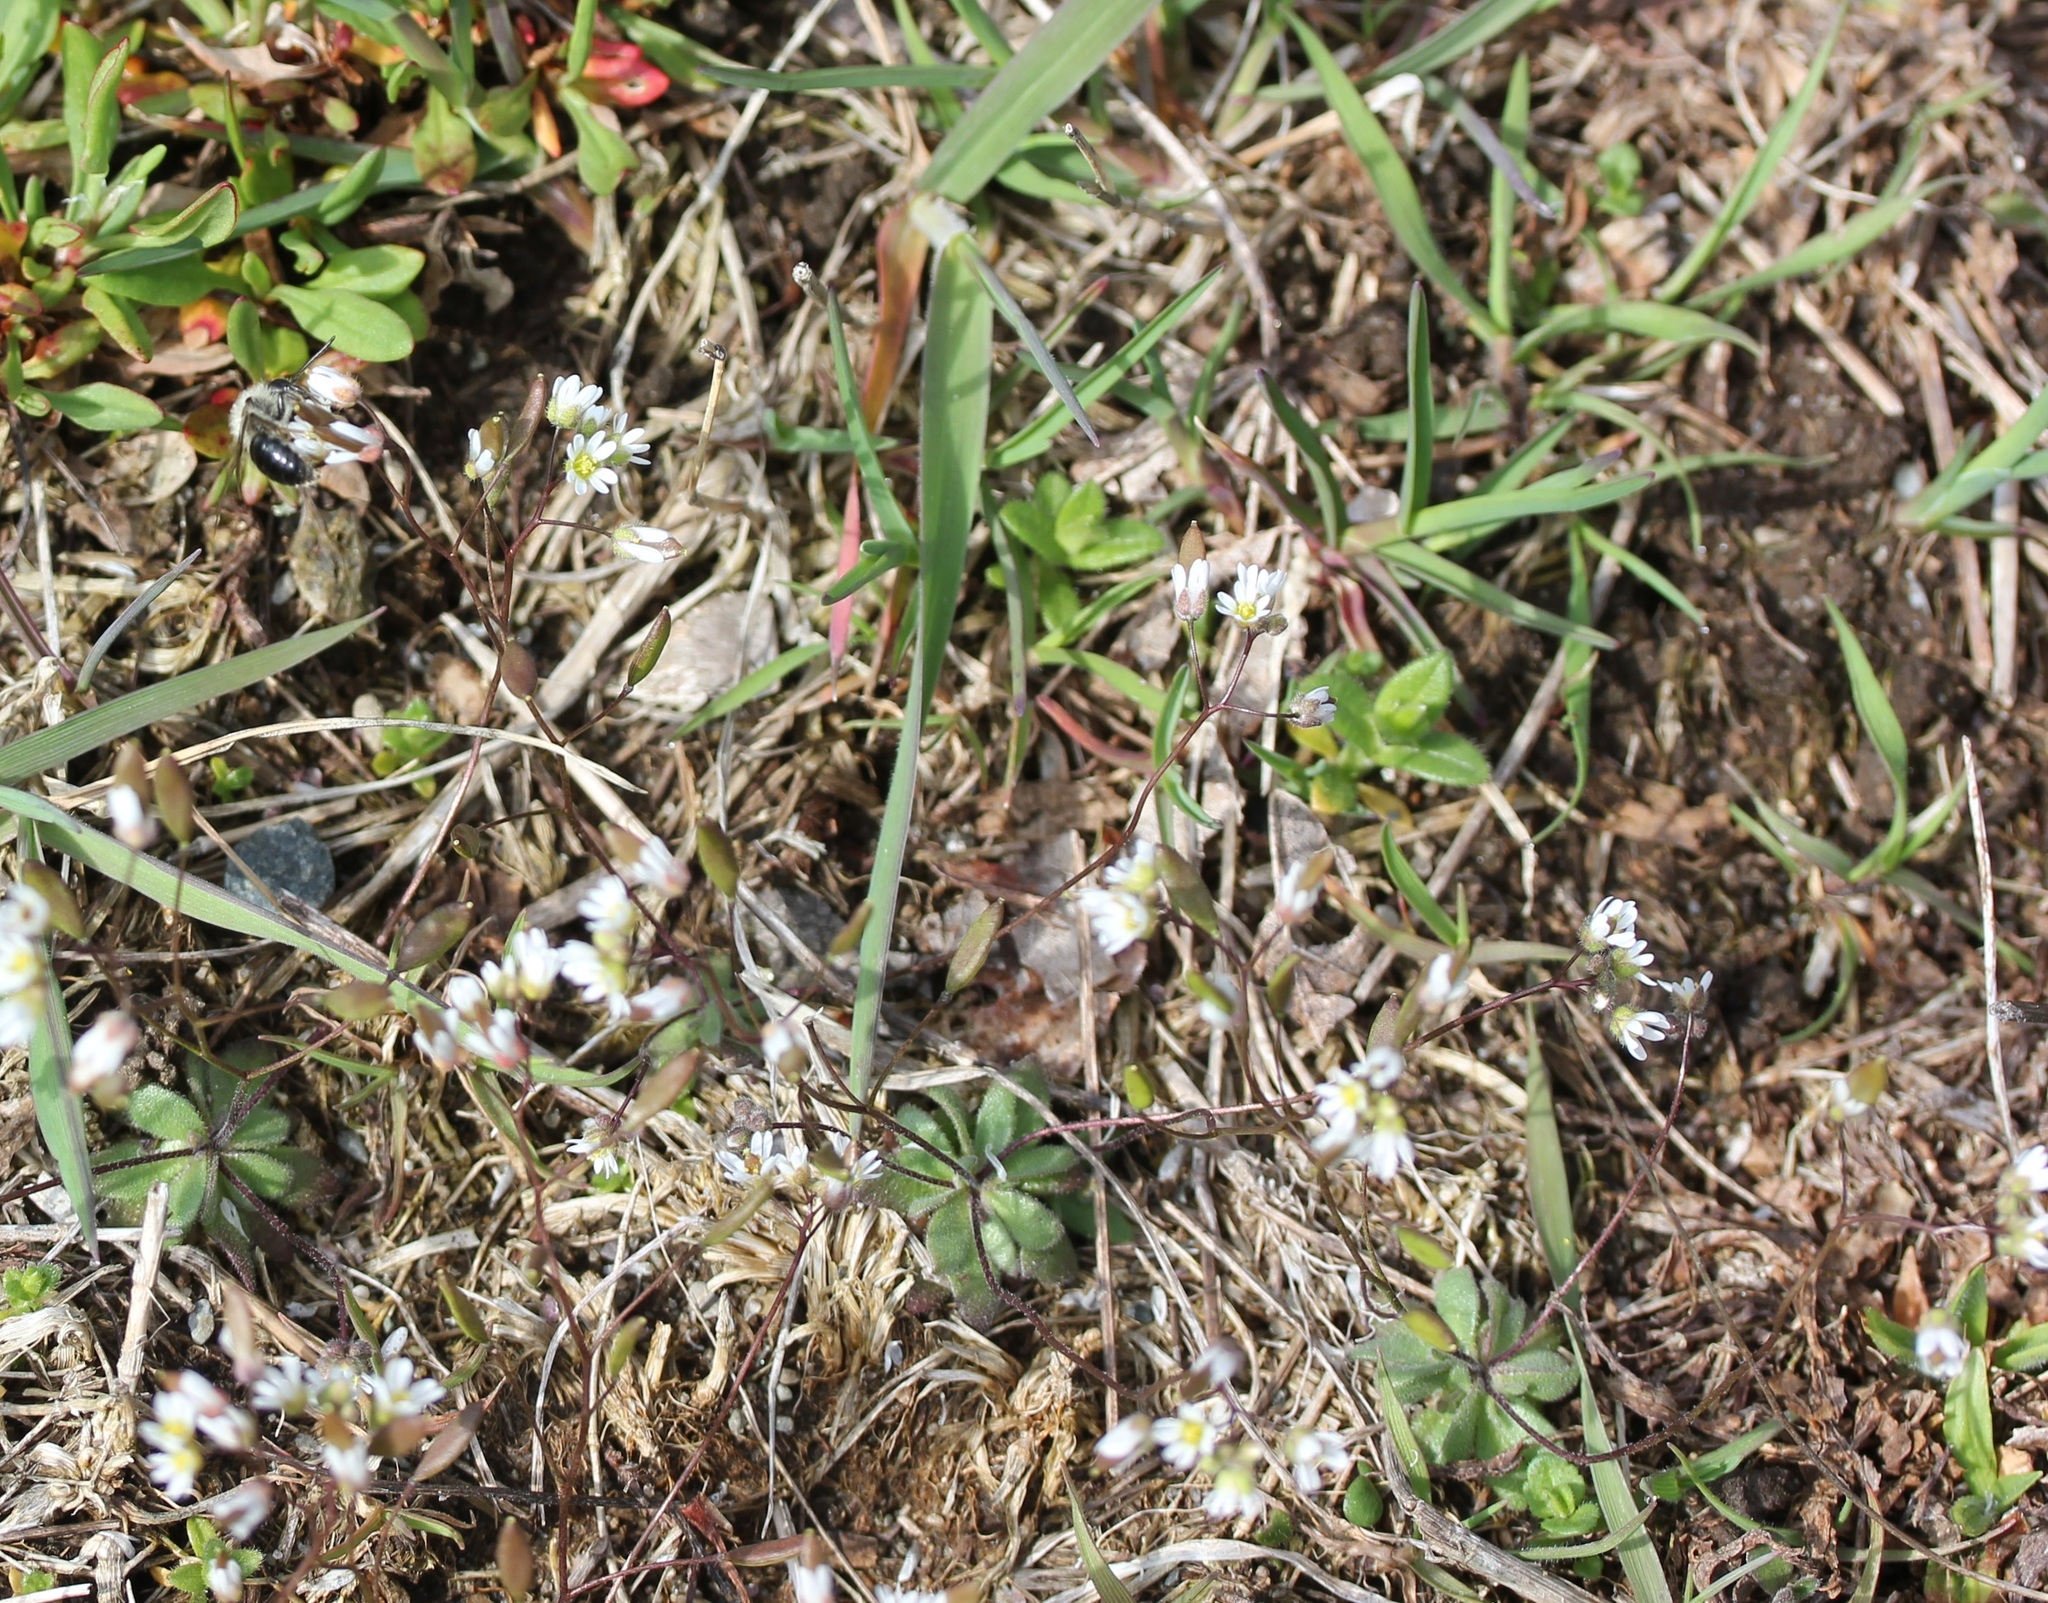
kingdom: Plantae
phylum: Tracheophyta
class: Magnoliopsida
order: Brassicales
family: Brassicaceae
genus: Draba
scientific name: Draba verna
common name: Spring draba
